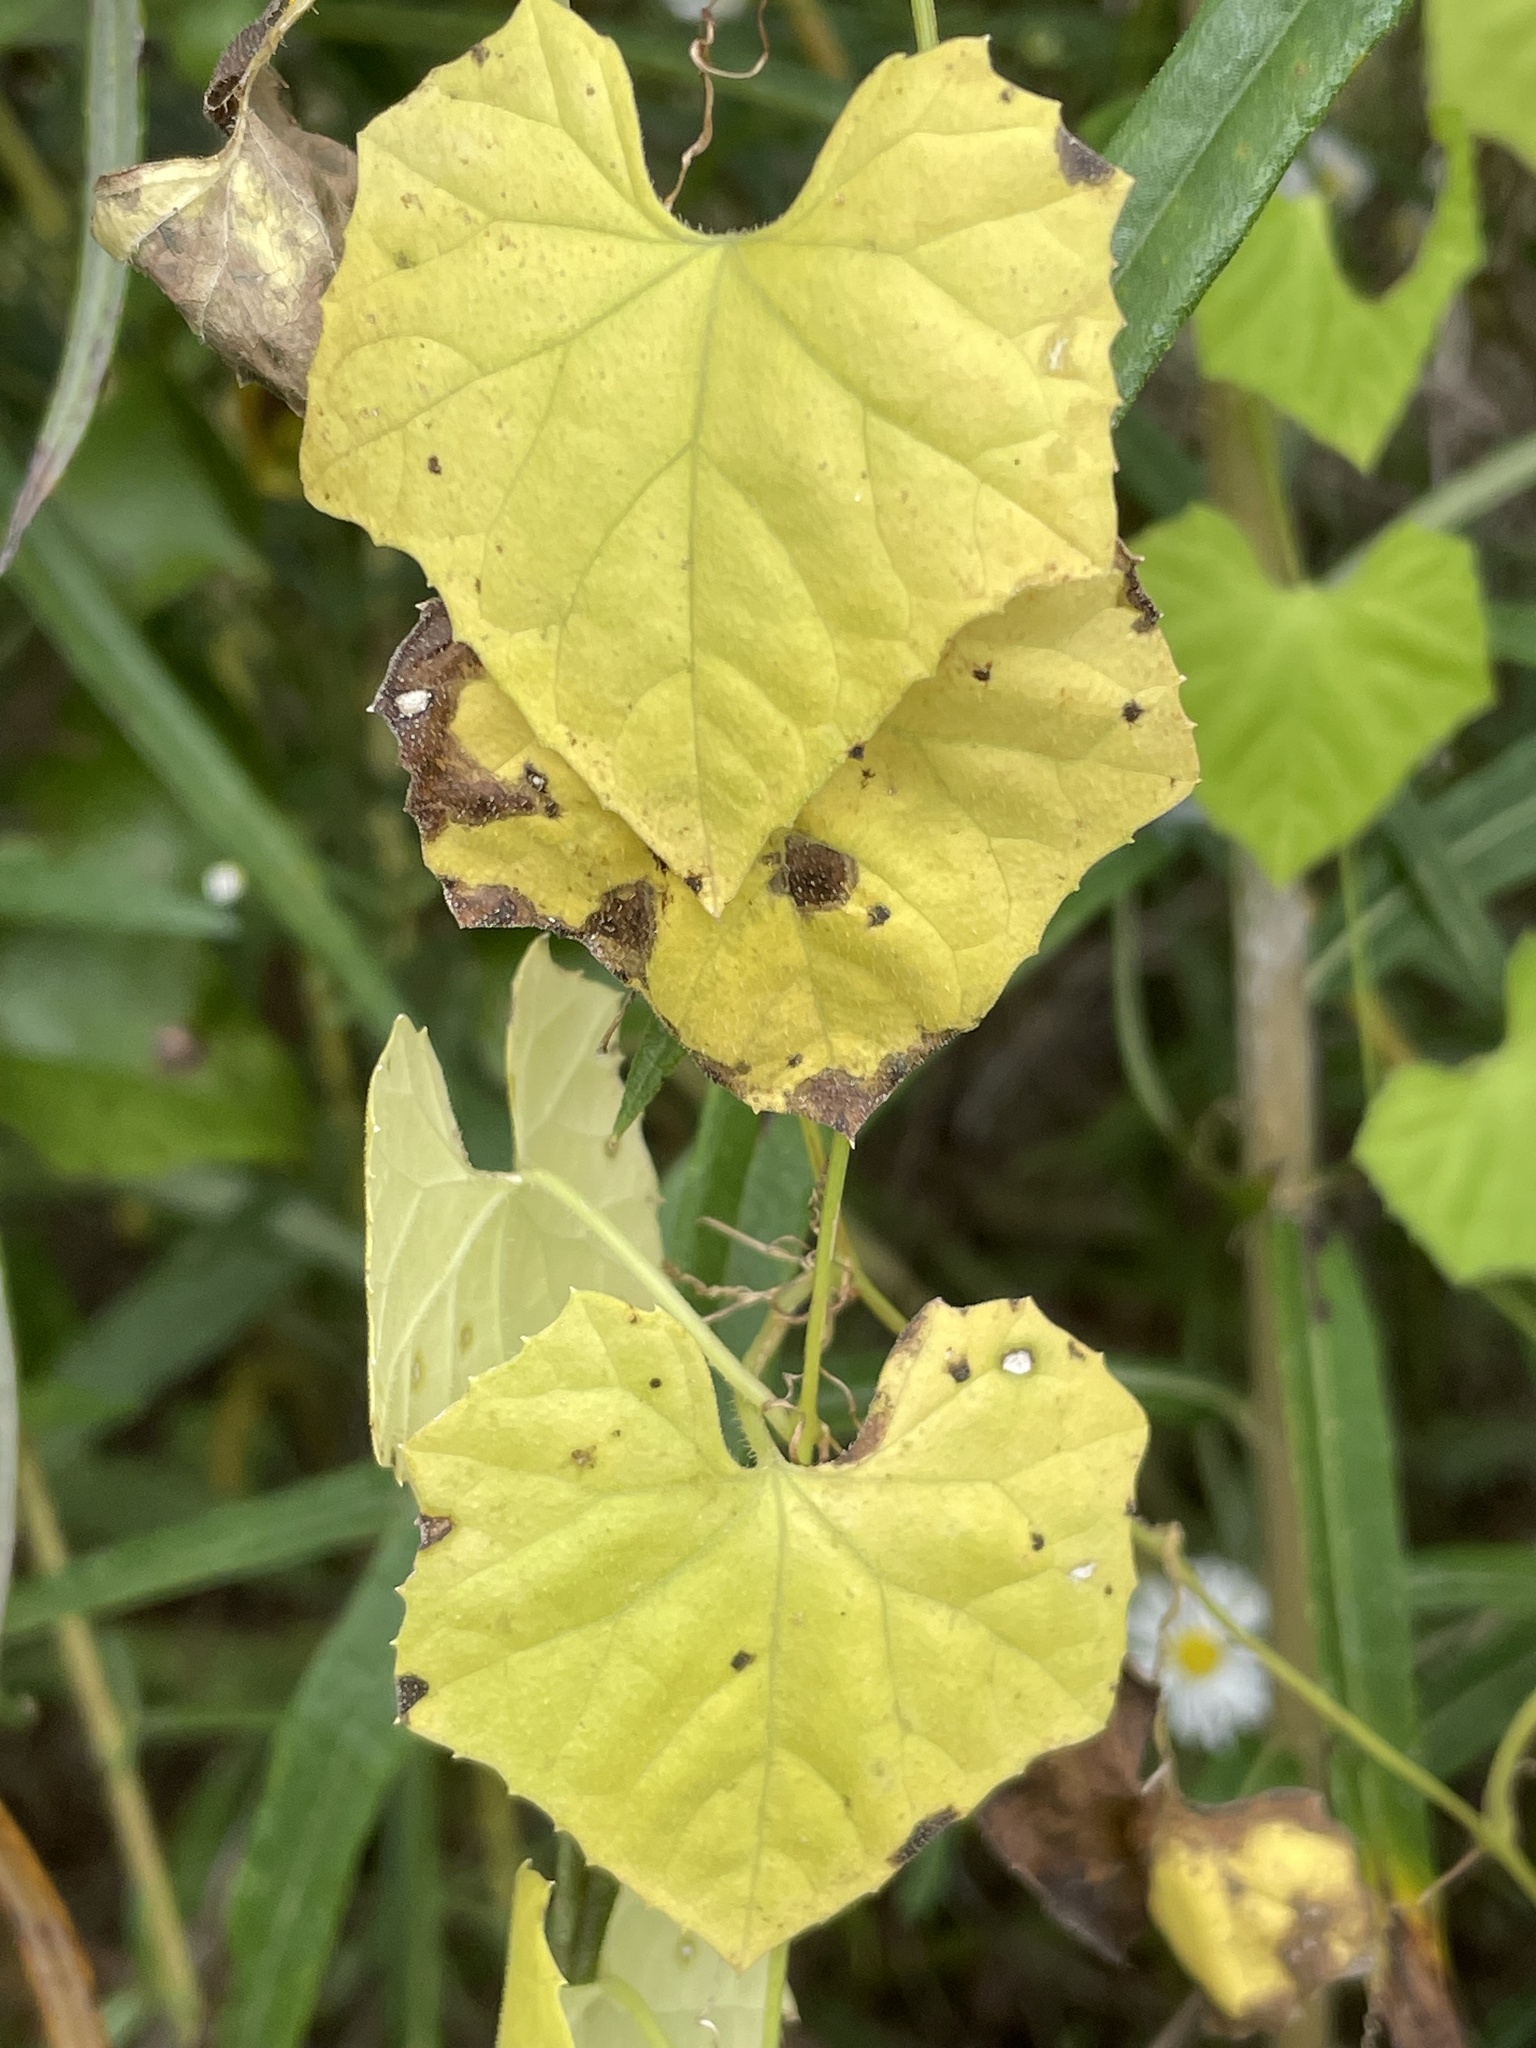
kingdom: Plantae
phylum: Tracheophyta
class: Magnoliopsida
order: Cucurbitales
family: Cucurbitaceae
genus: Melothria
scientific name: Melothria pendula
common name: Creeping-cucumber
